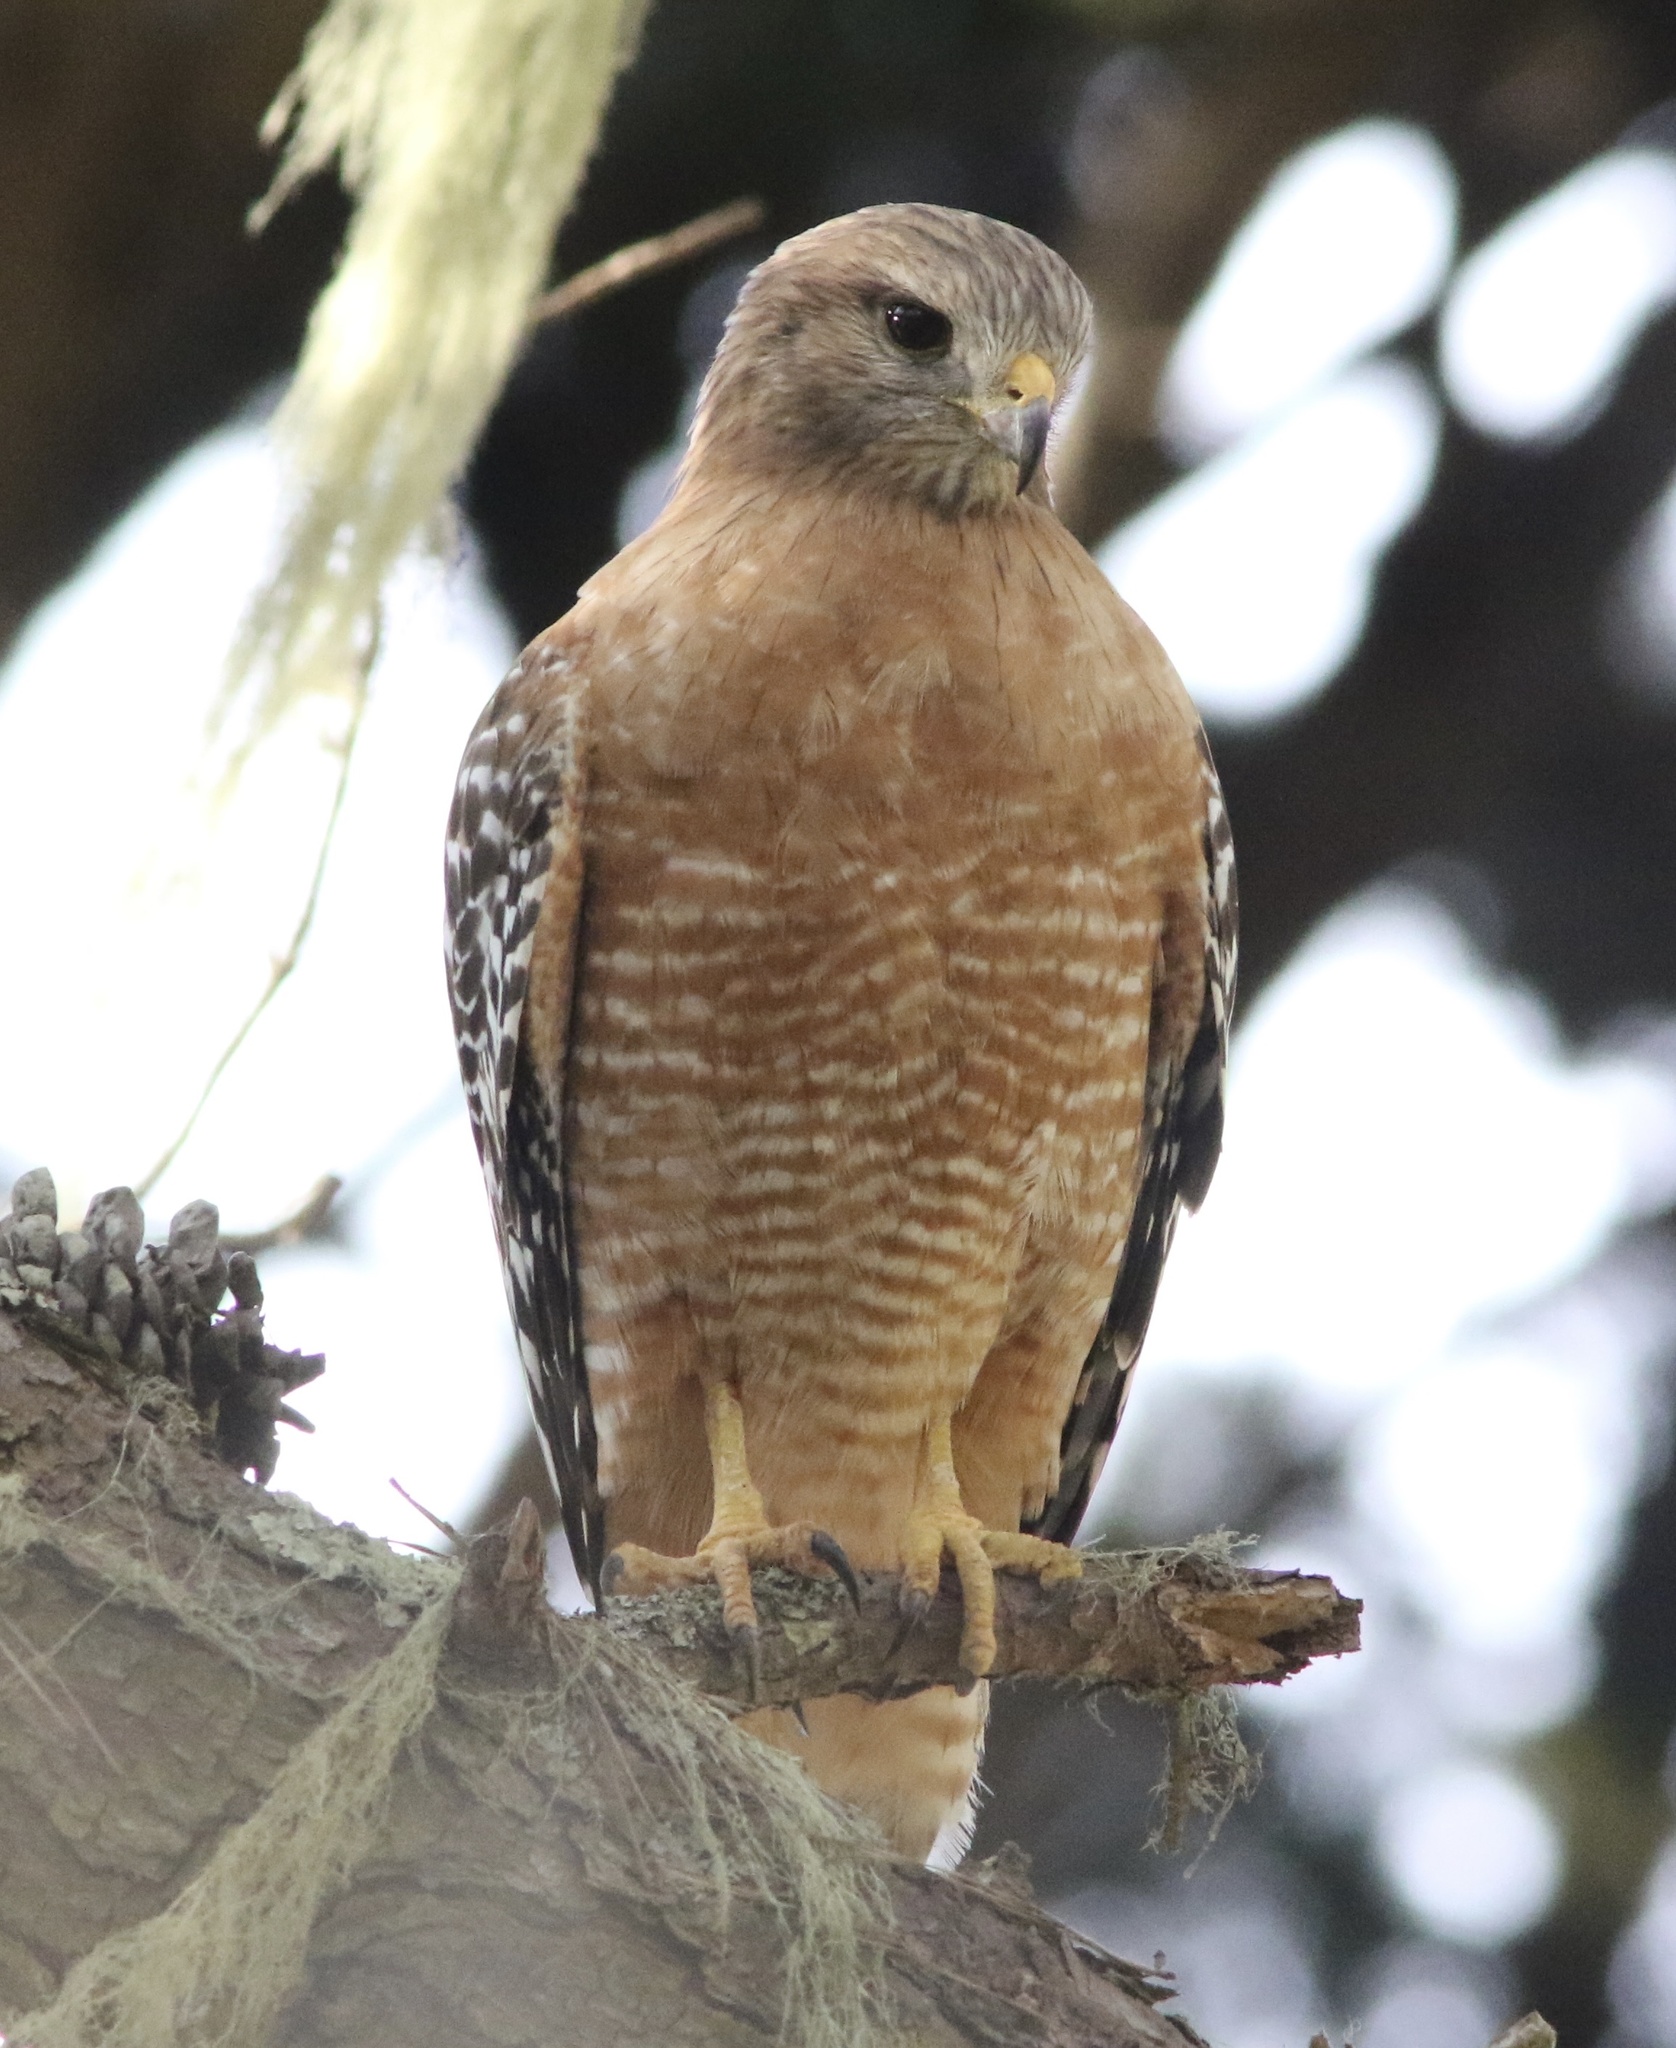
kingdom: Animalia
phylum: Chordata
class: Aves
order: Accipitriformes
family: Accipitridae
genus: Buteo
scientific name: Buteo lineatus
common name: Red-shouldered hawk
